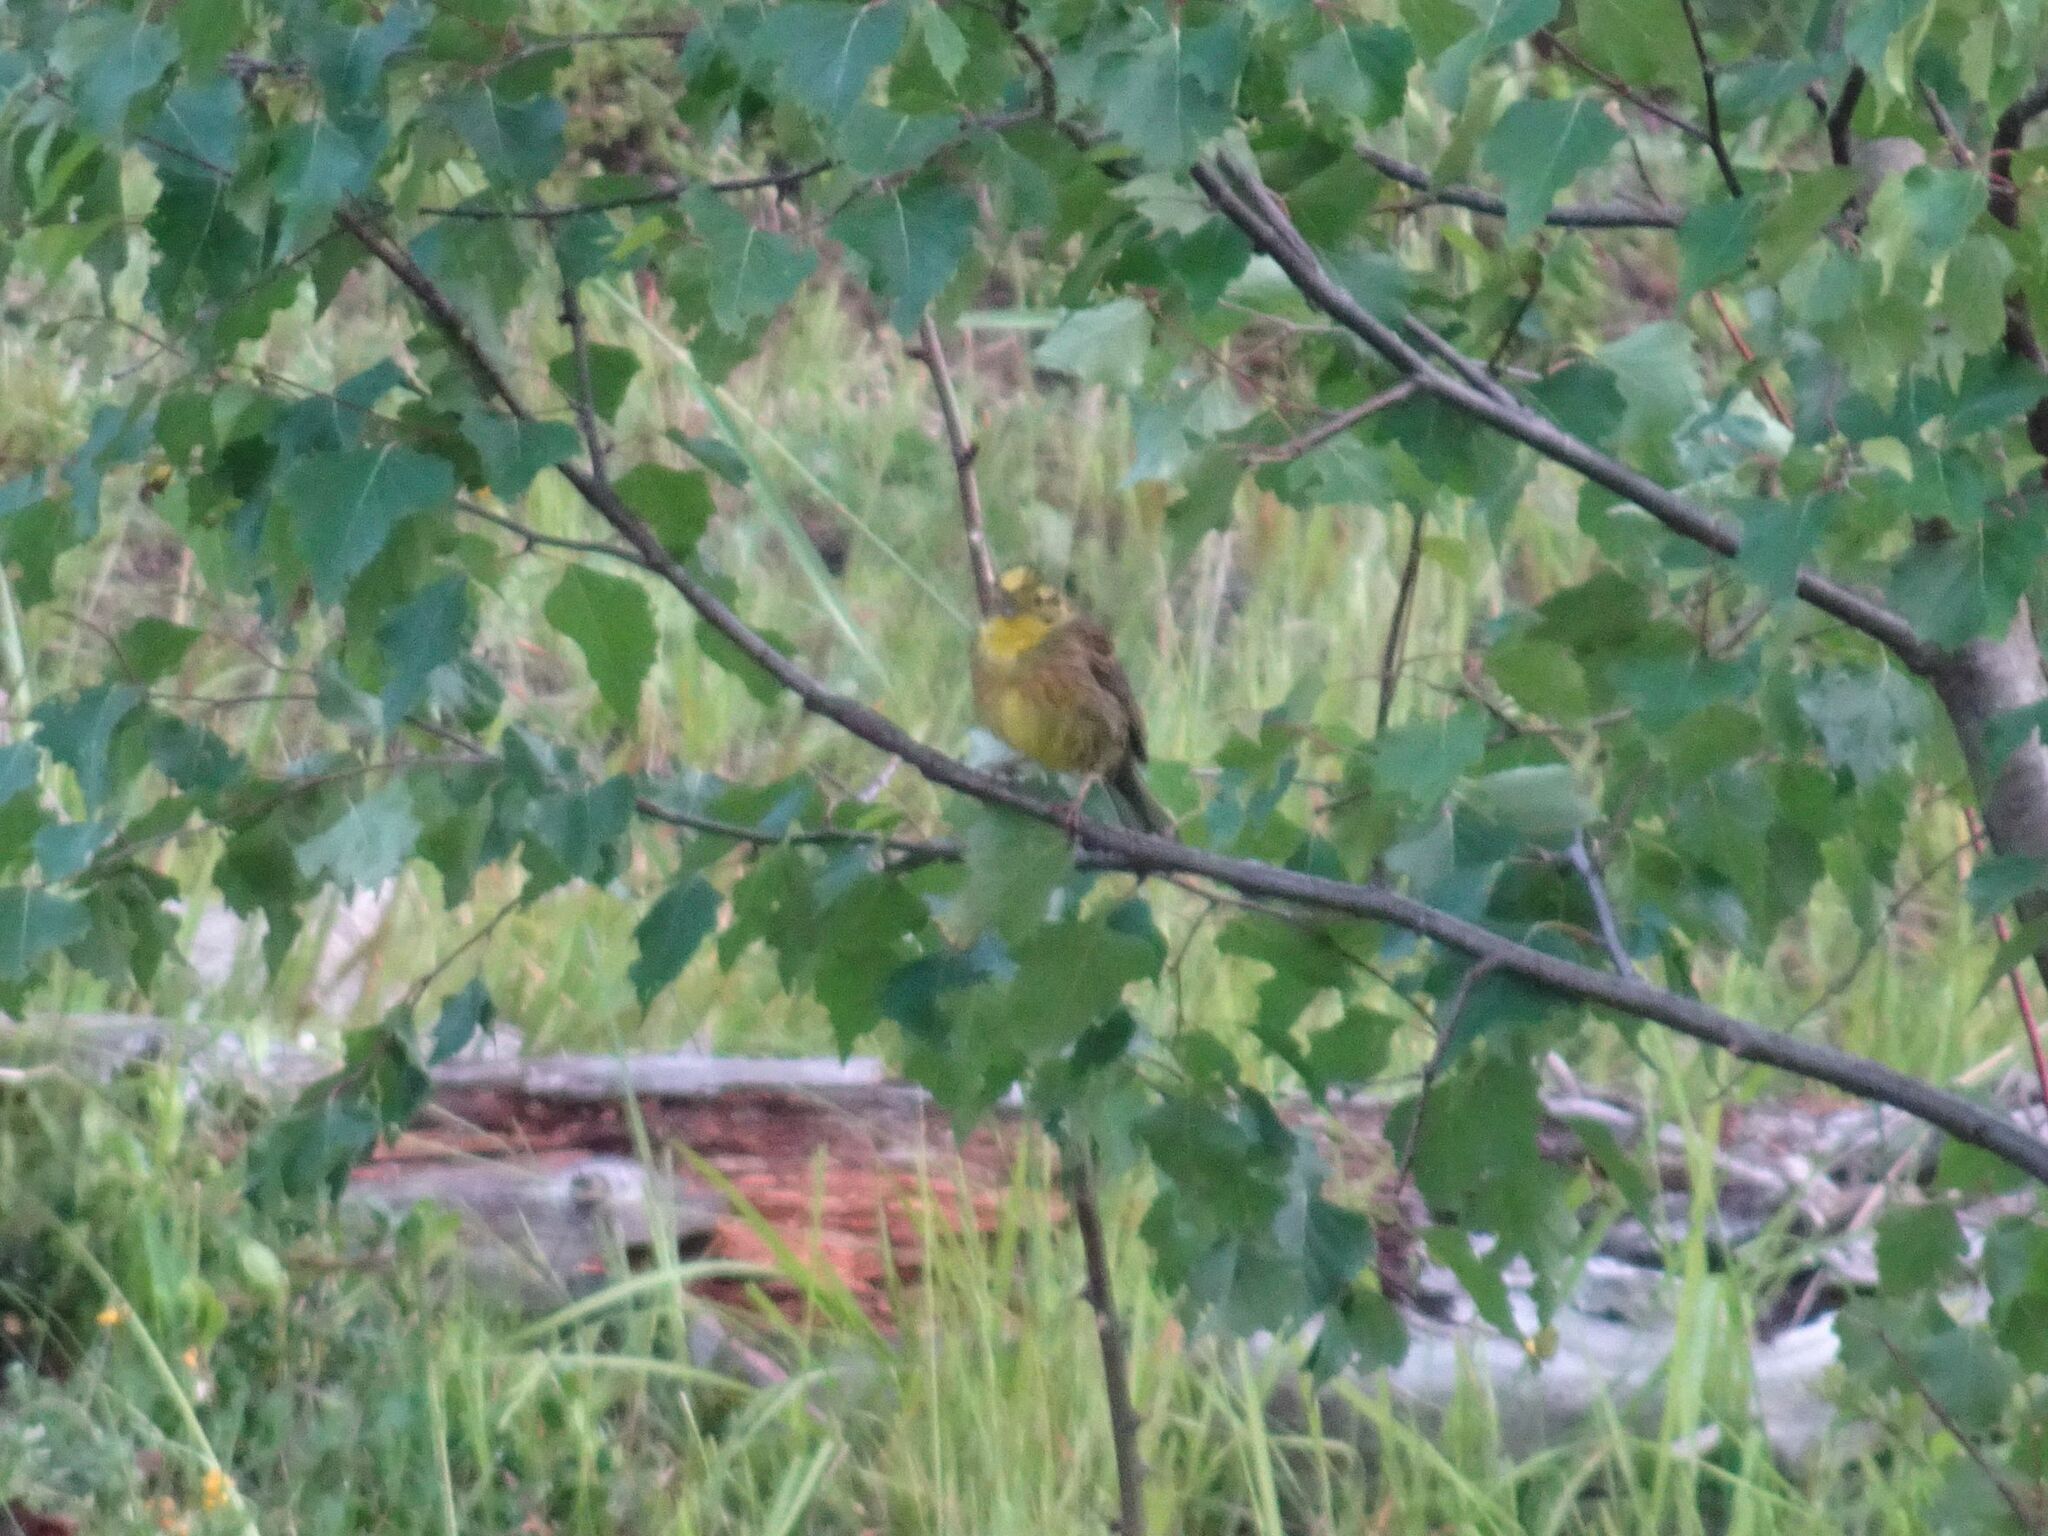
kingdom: Animalia
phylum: Chordata
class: Aves
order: Passeriformes
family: Emberizidae
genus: Emberiza
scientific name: Emberiza citrinella
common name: Yellowhammer
